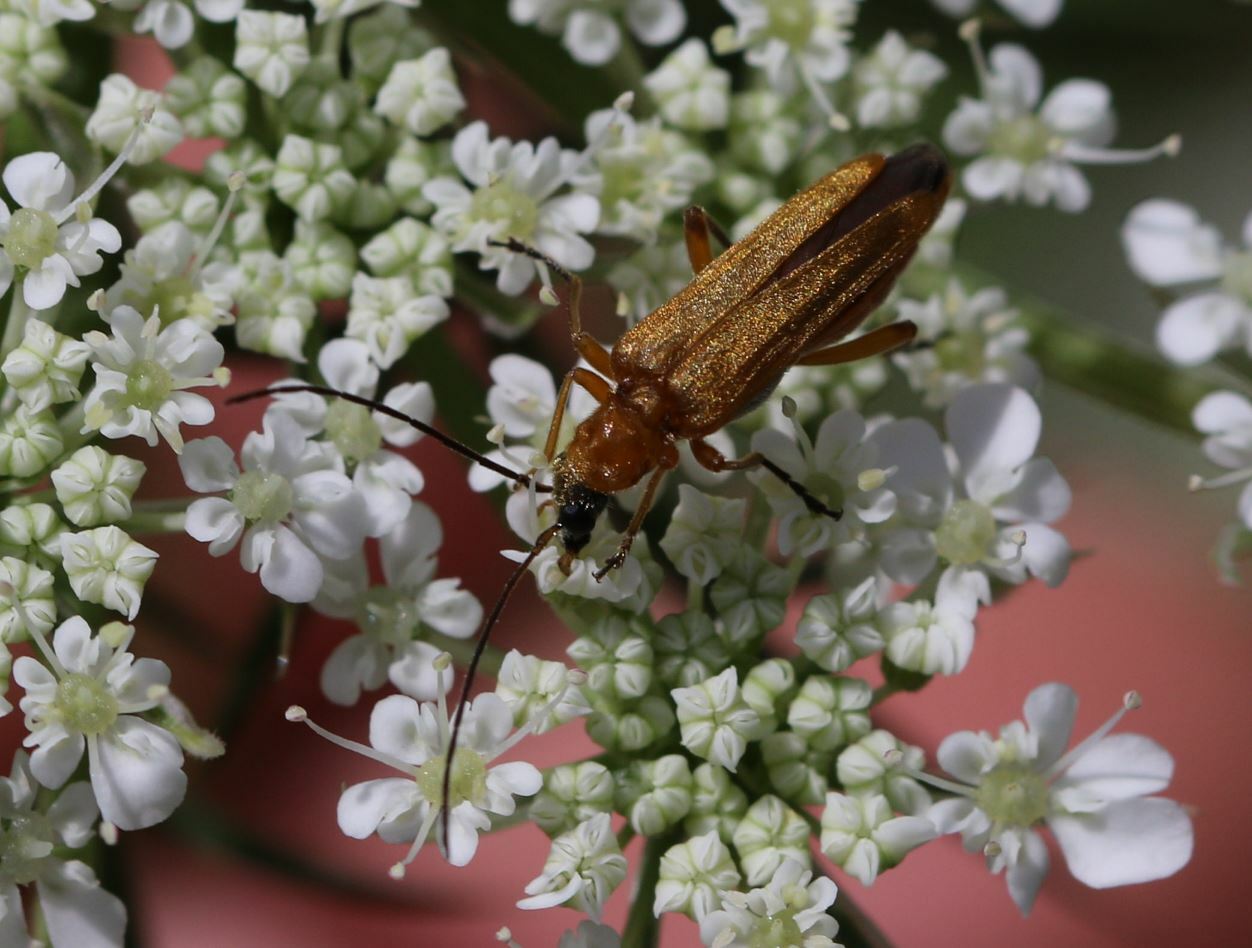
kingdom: Animalia
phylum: Arthropoda
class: Insecta
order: Coleoptera
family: Oedemeridae
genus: Oedemera
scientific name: Oedemera podagrariae
